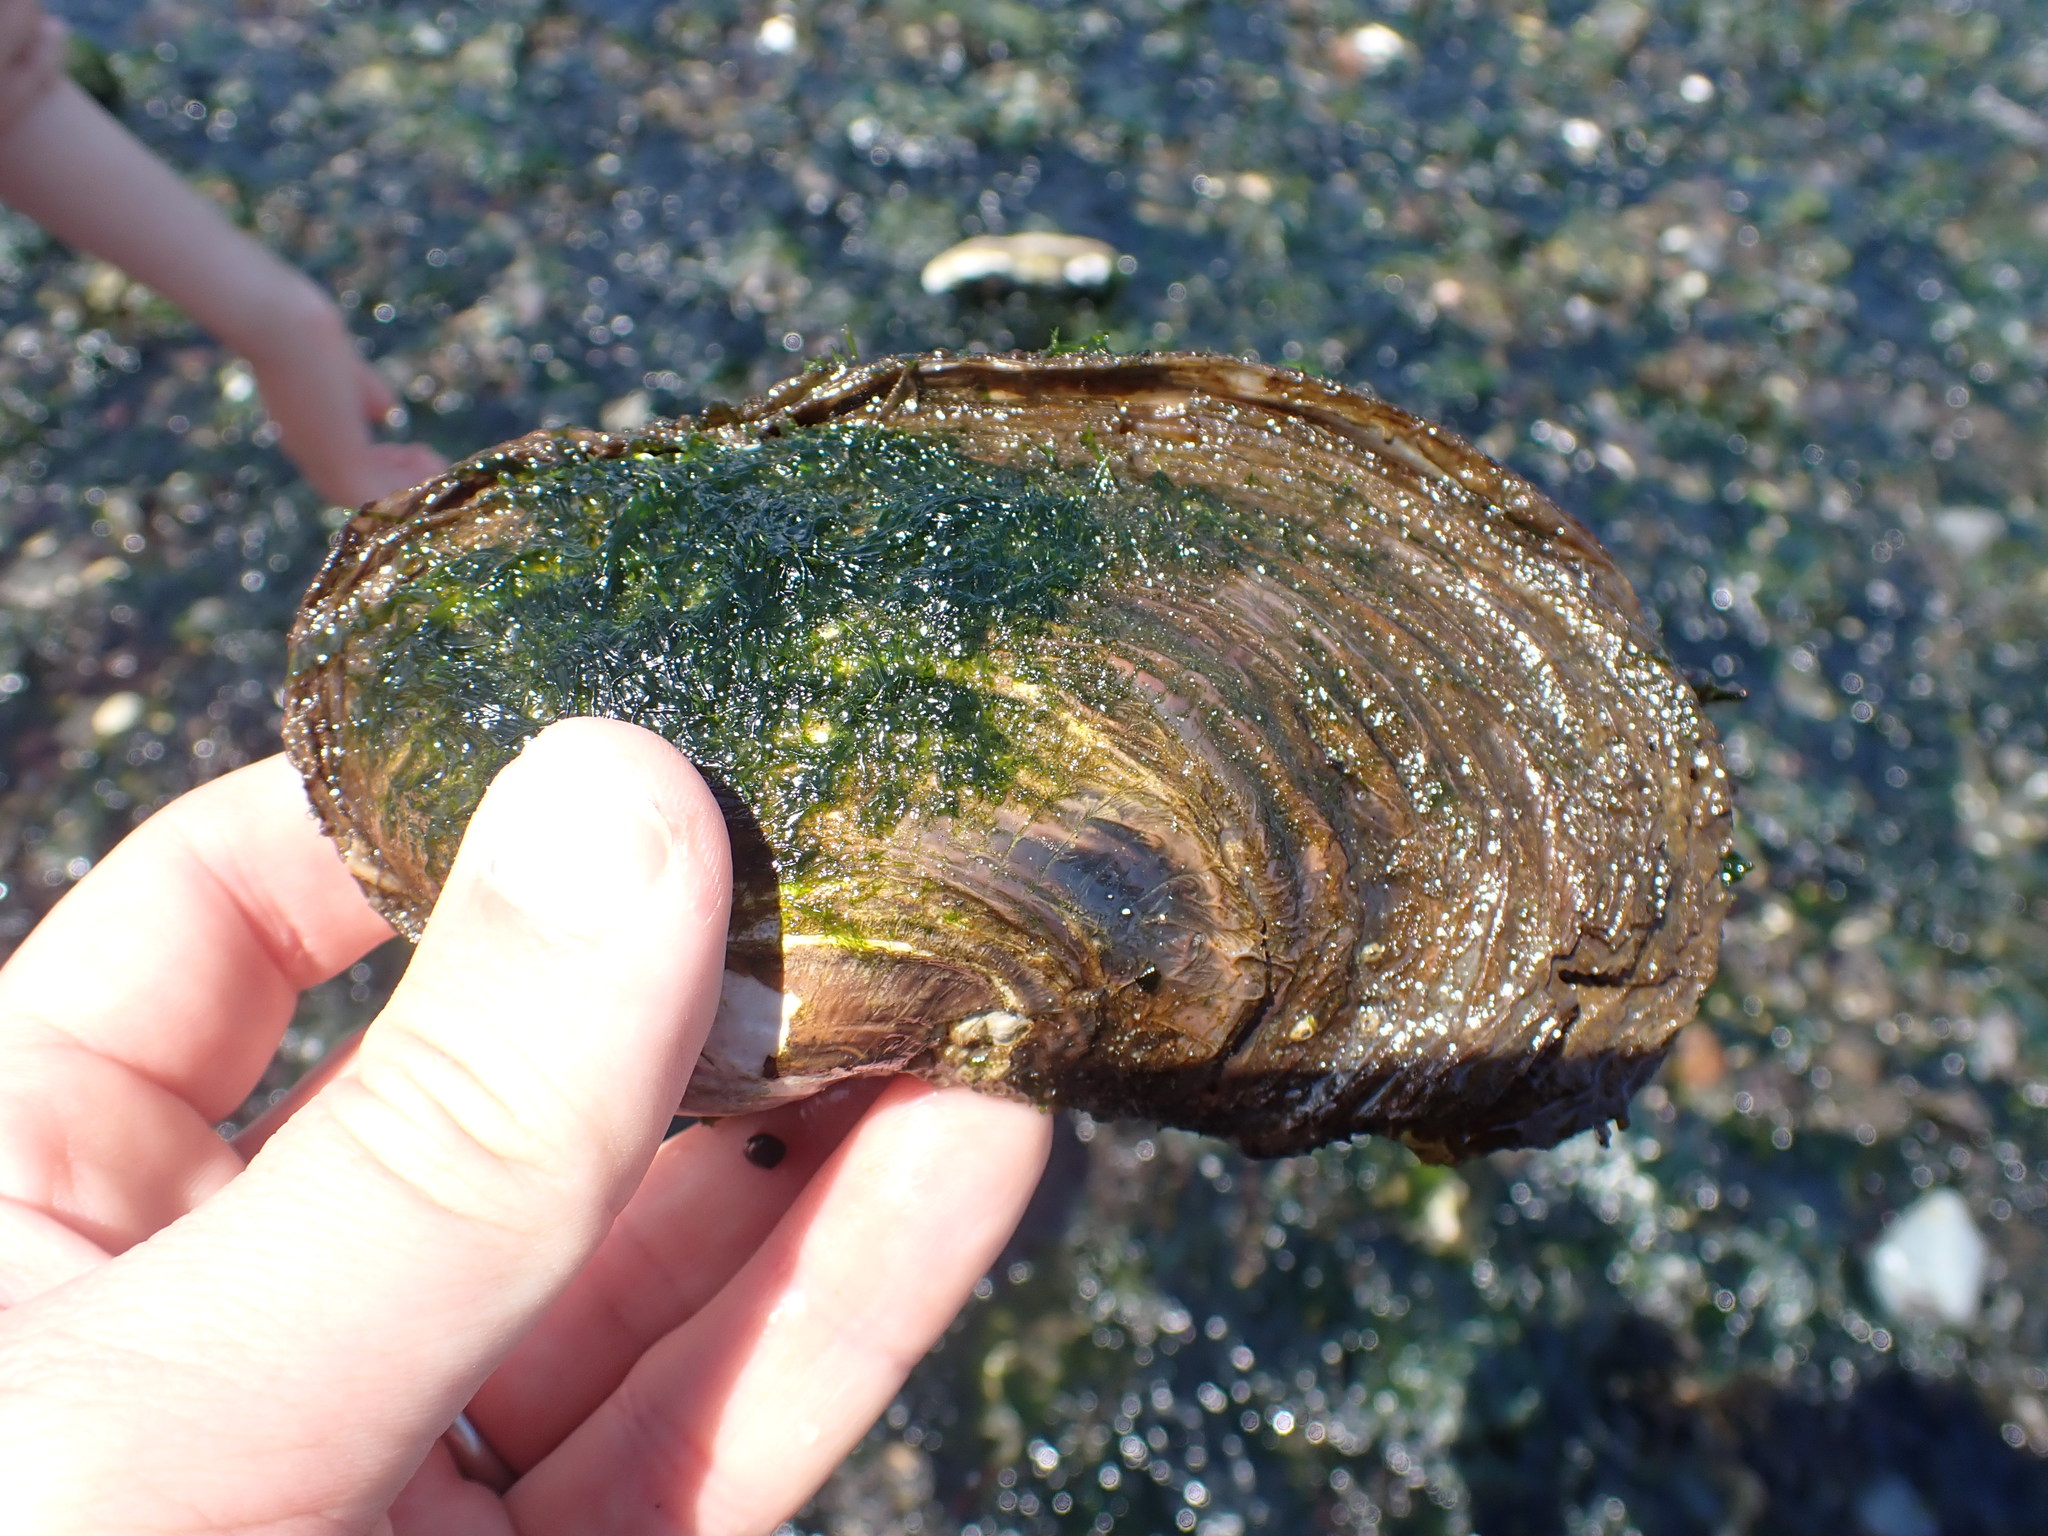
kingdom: Animalia
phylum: Mollusca
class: Bivalvia
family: Lyonsiidae
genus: Entodesma
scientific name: Entodesma navicula
